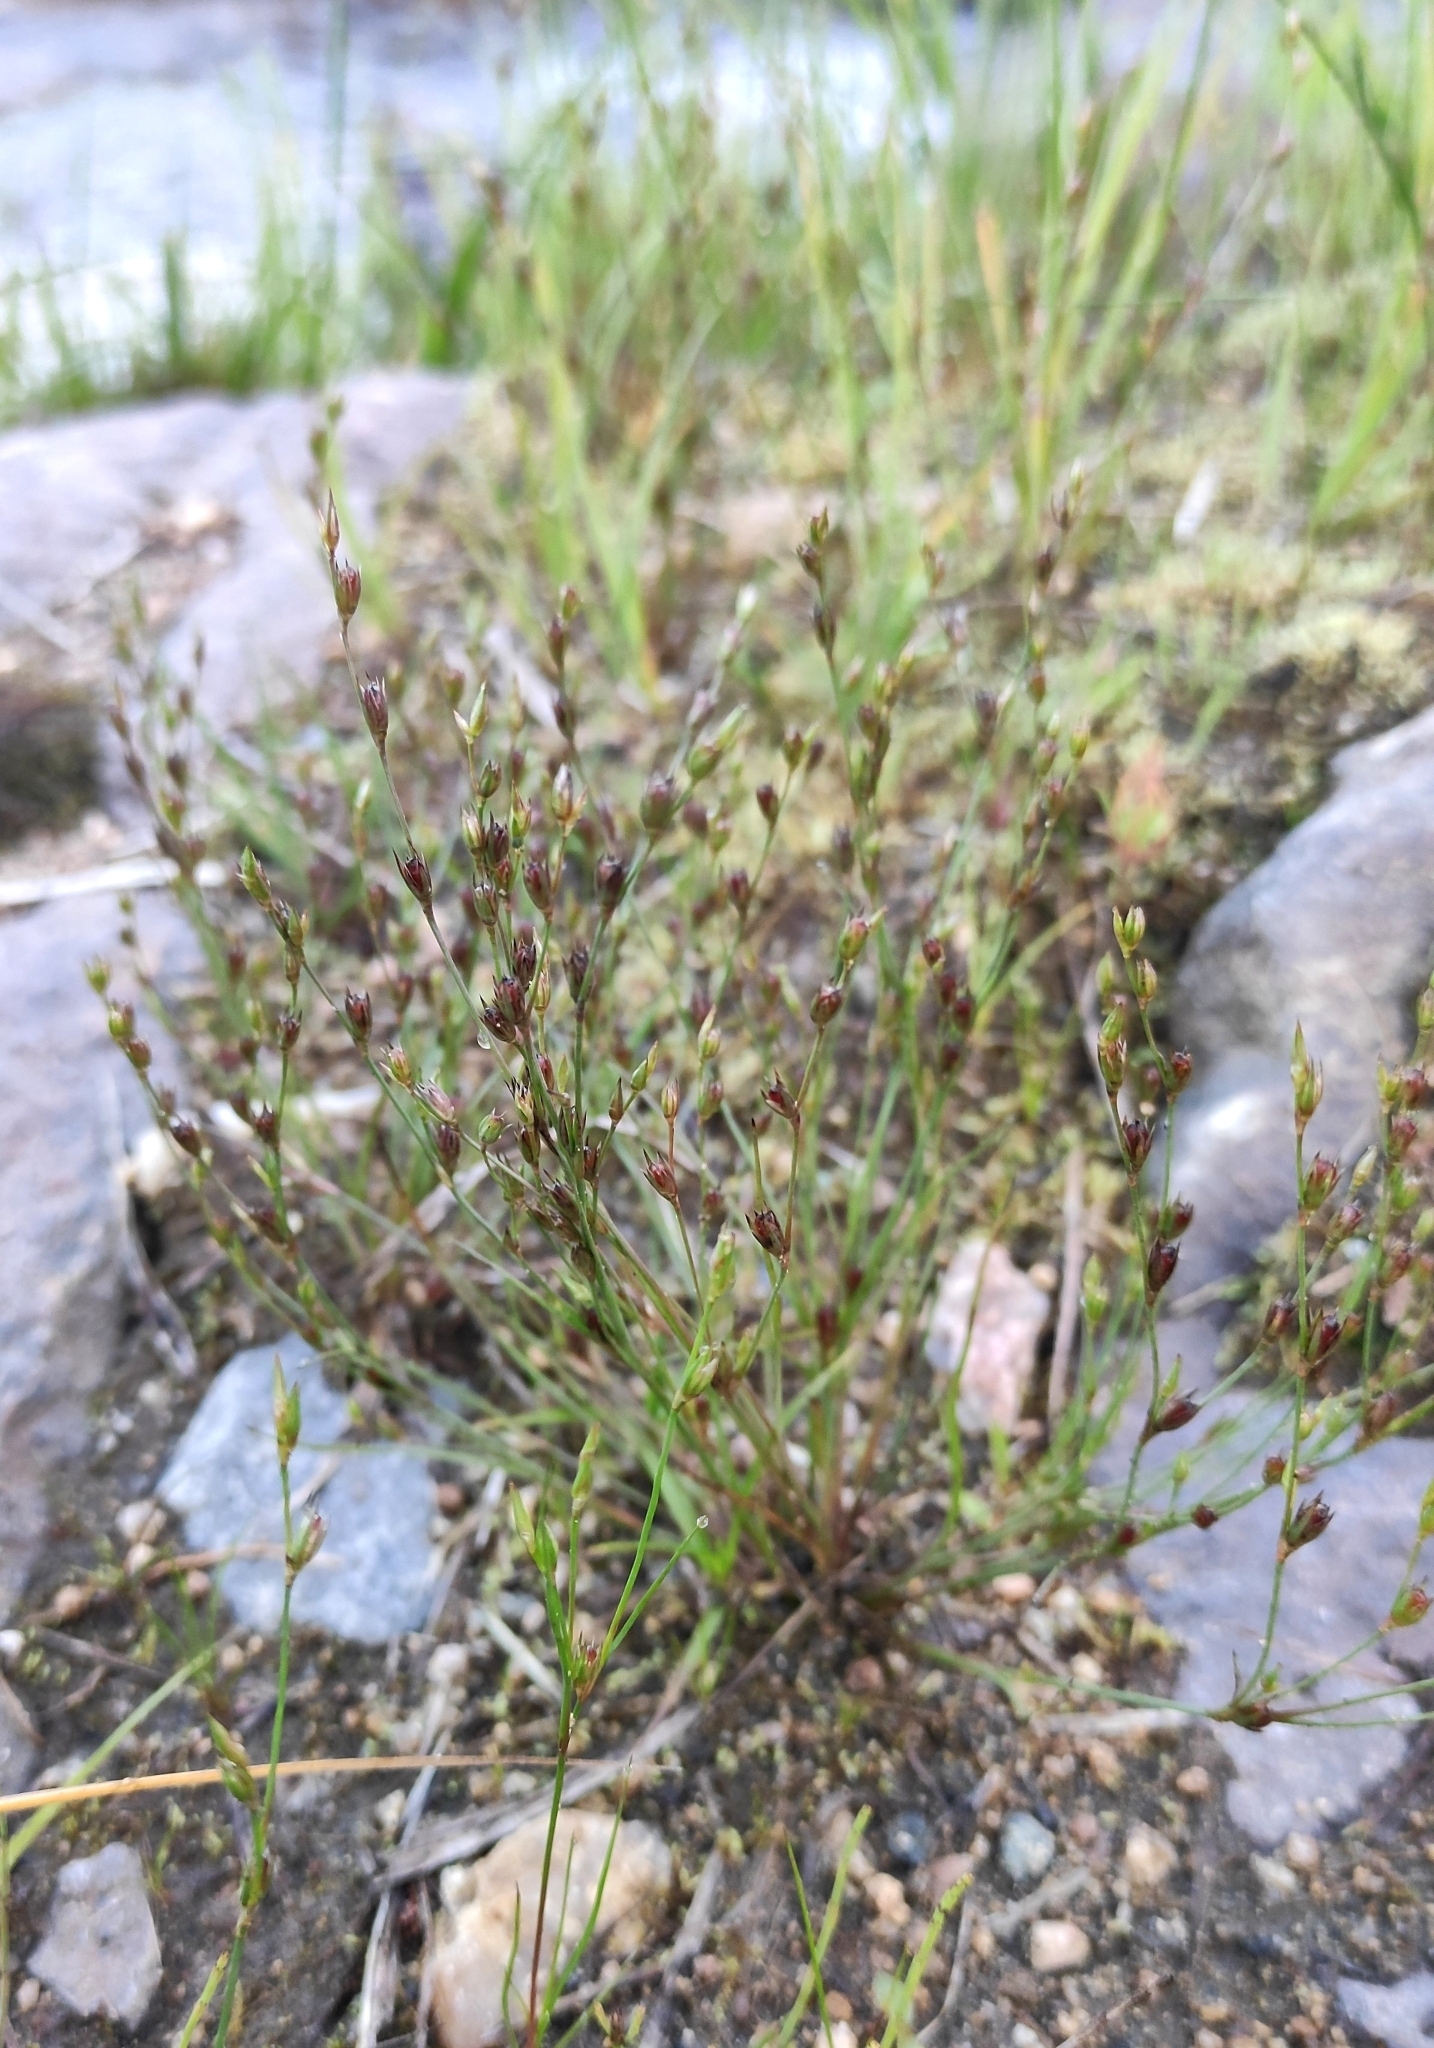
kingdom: Plantae
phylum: Tracheophyta
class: Liliopsida
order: Poales
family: Juncaceae
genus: Juncus
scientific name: Juncus bufonius
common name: Toad rush
